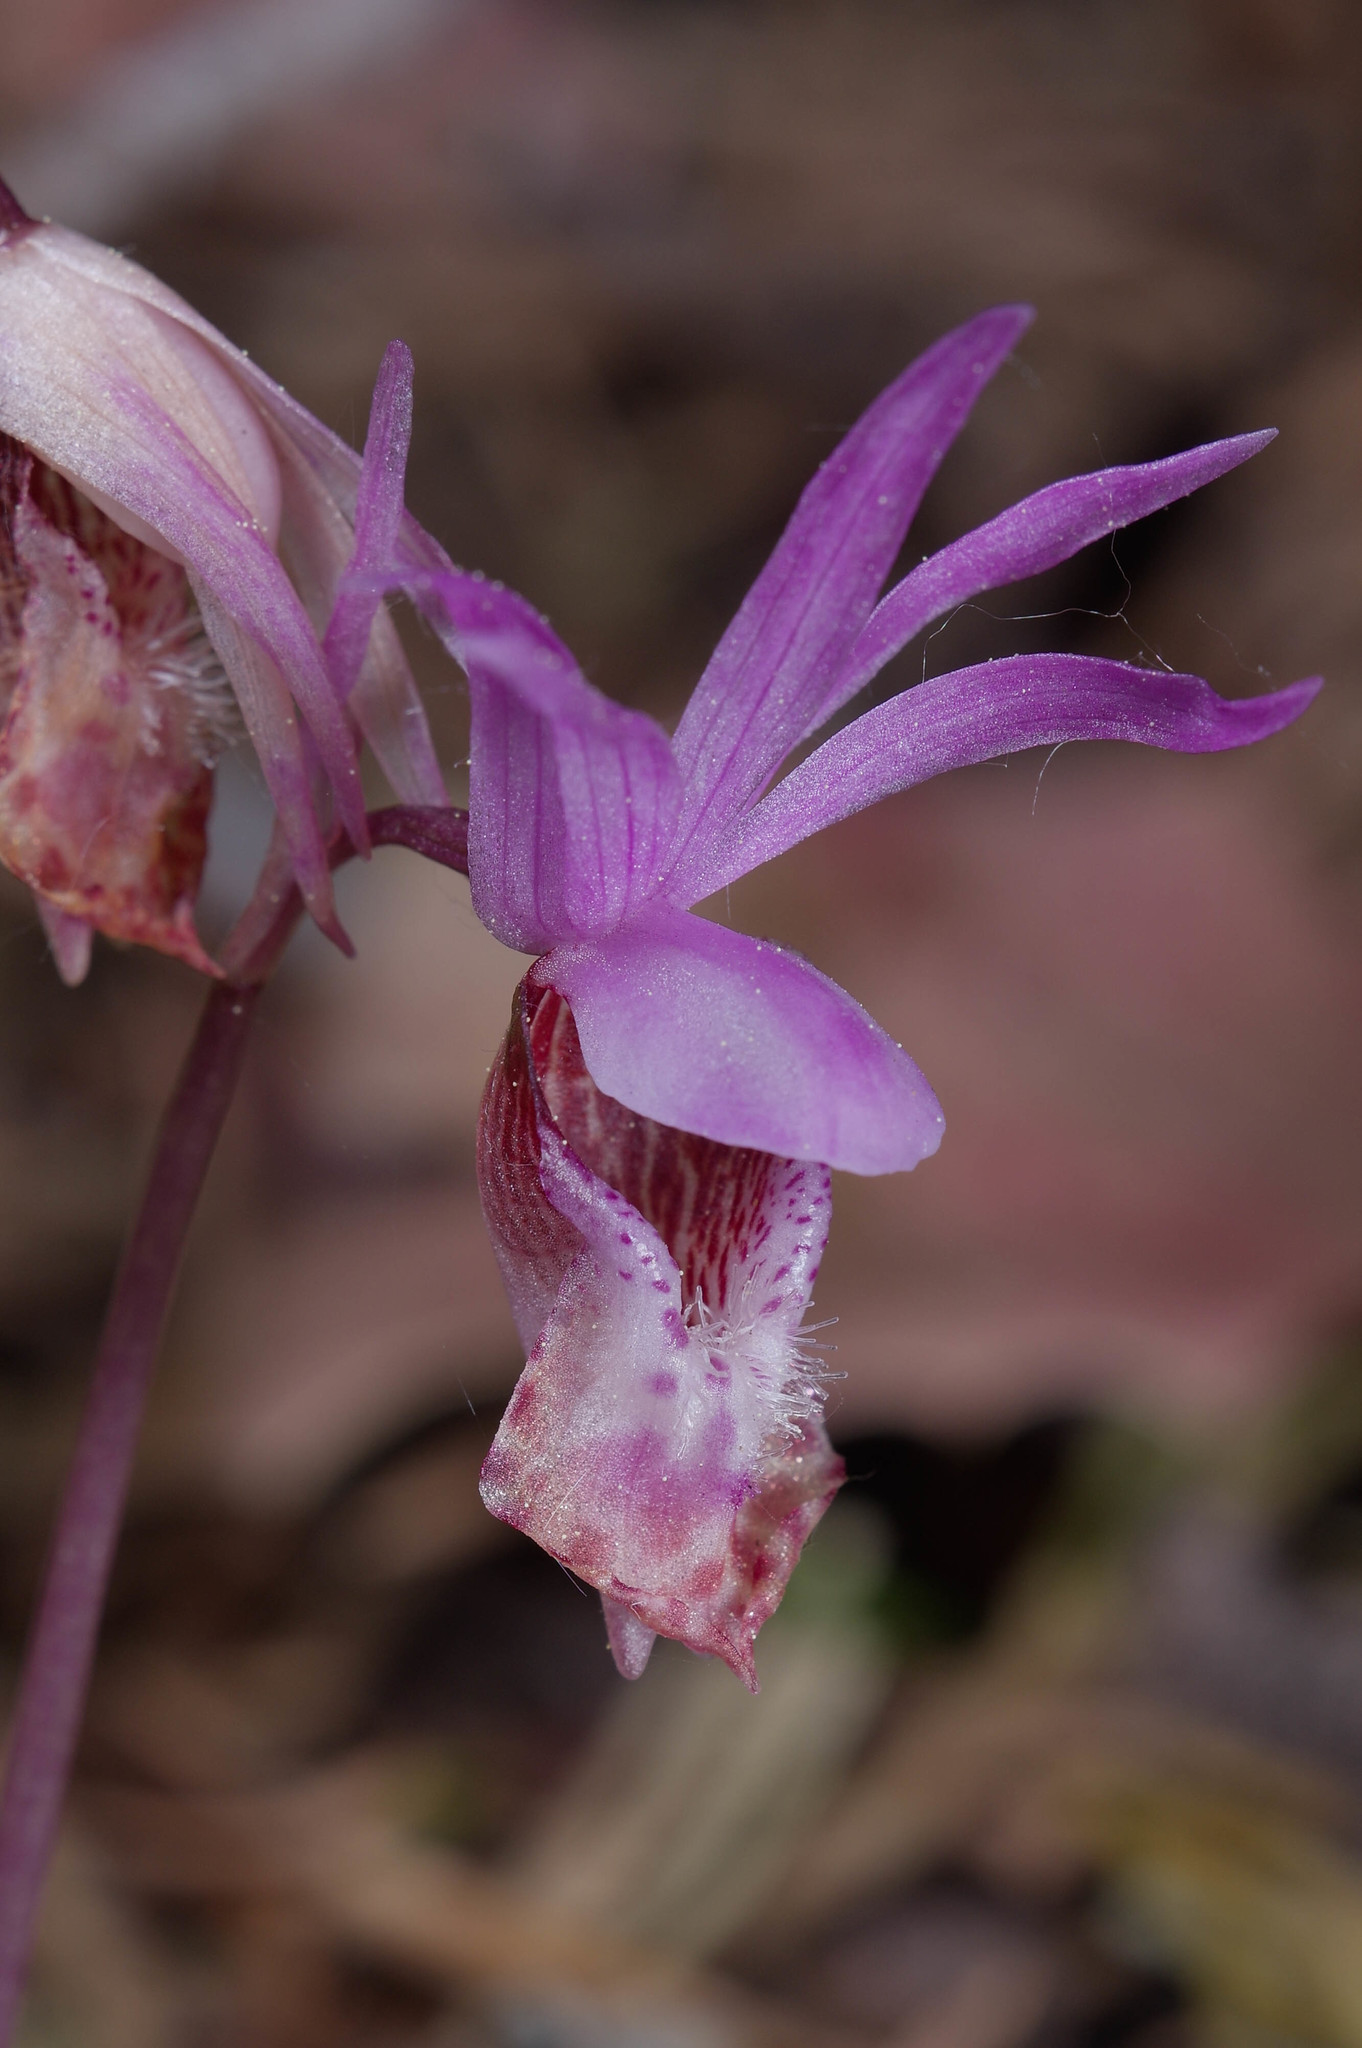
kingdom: Plantae
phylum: Tracheophyta
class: Liliopsida
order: Asparagales
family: Orchidaceae
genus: Calypso
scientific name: Calypso bulbosa
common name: Calypso
